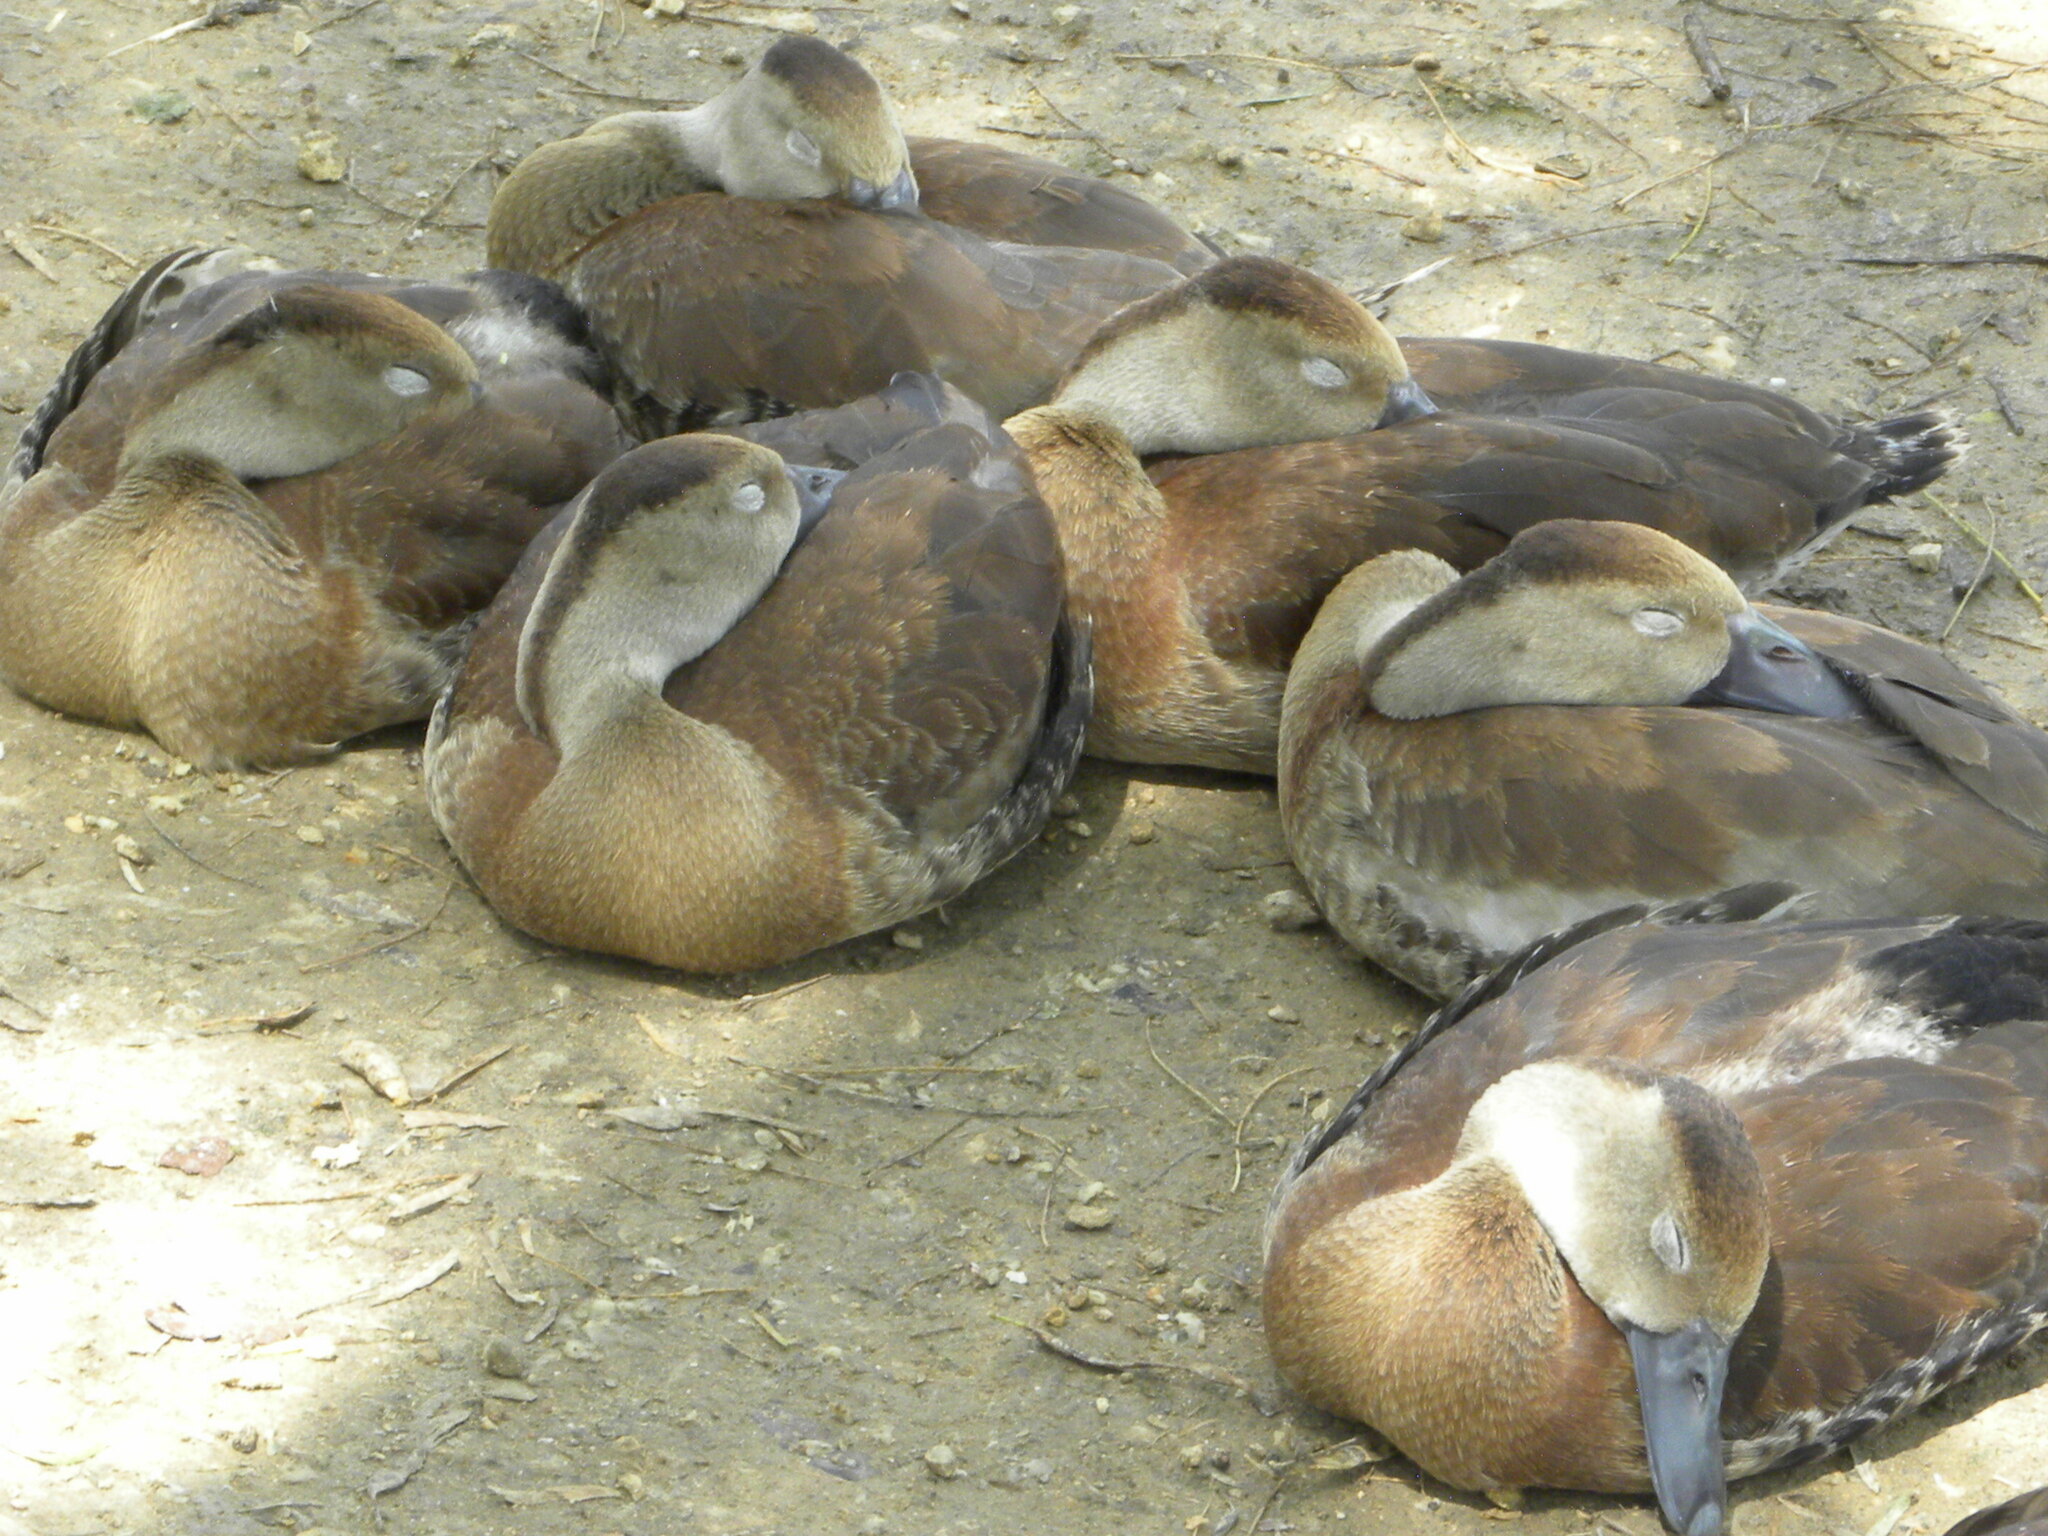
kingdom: Animalia
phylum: Chordata
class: Aves
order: Anseriformes
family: Anatidae
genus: Dendrocygna
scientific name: Dendrocygna autumnalis
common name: Black-bellied whistling duck
